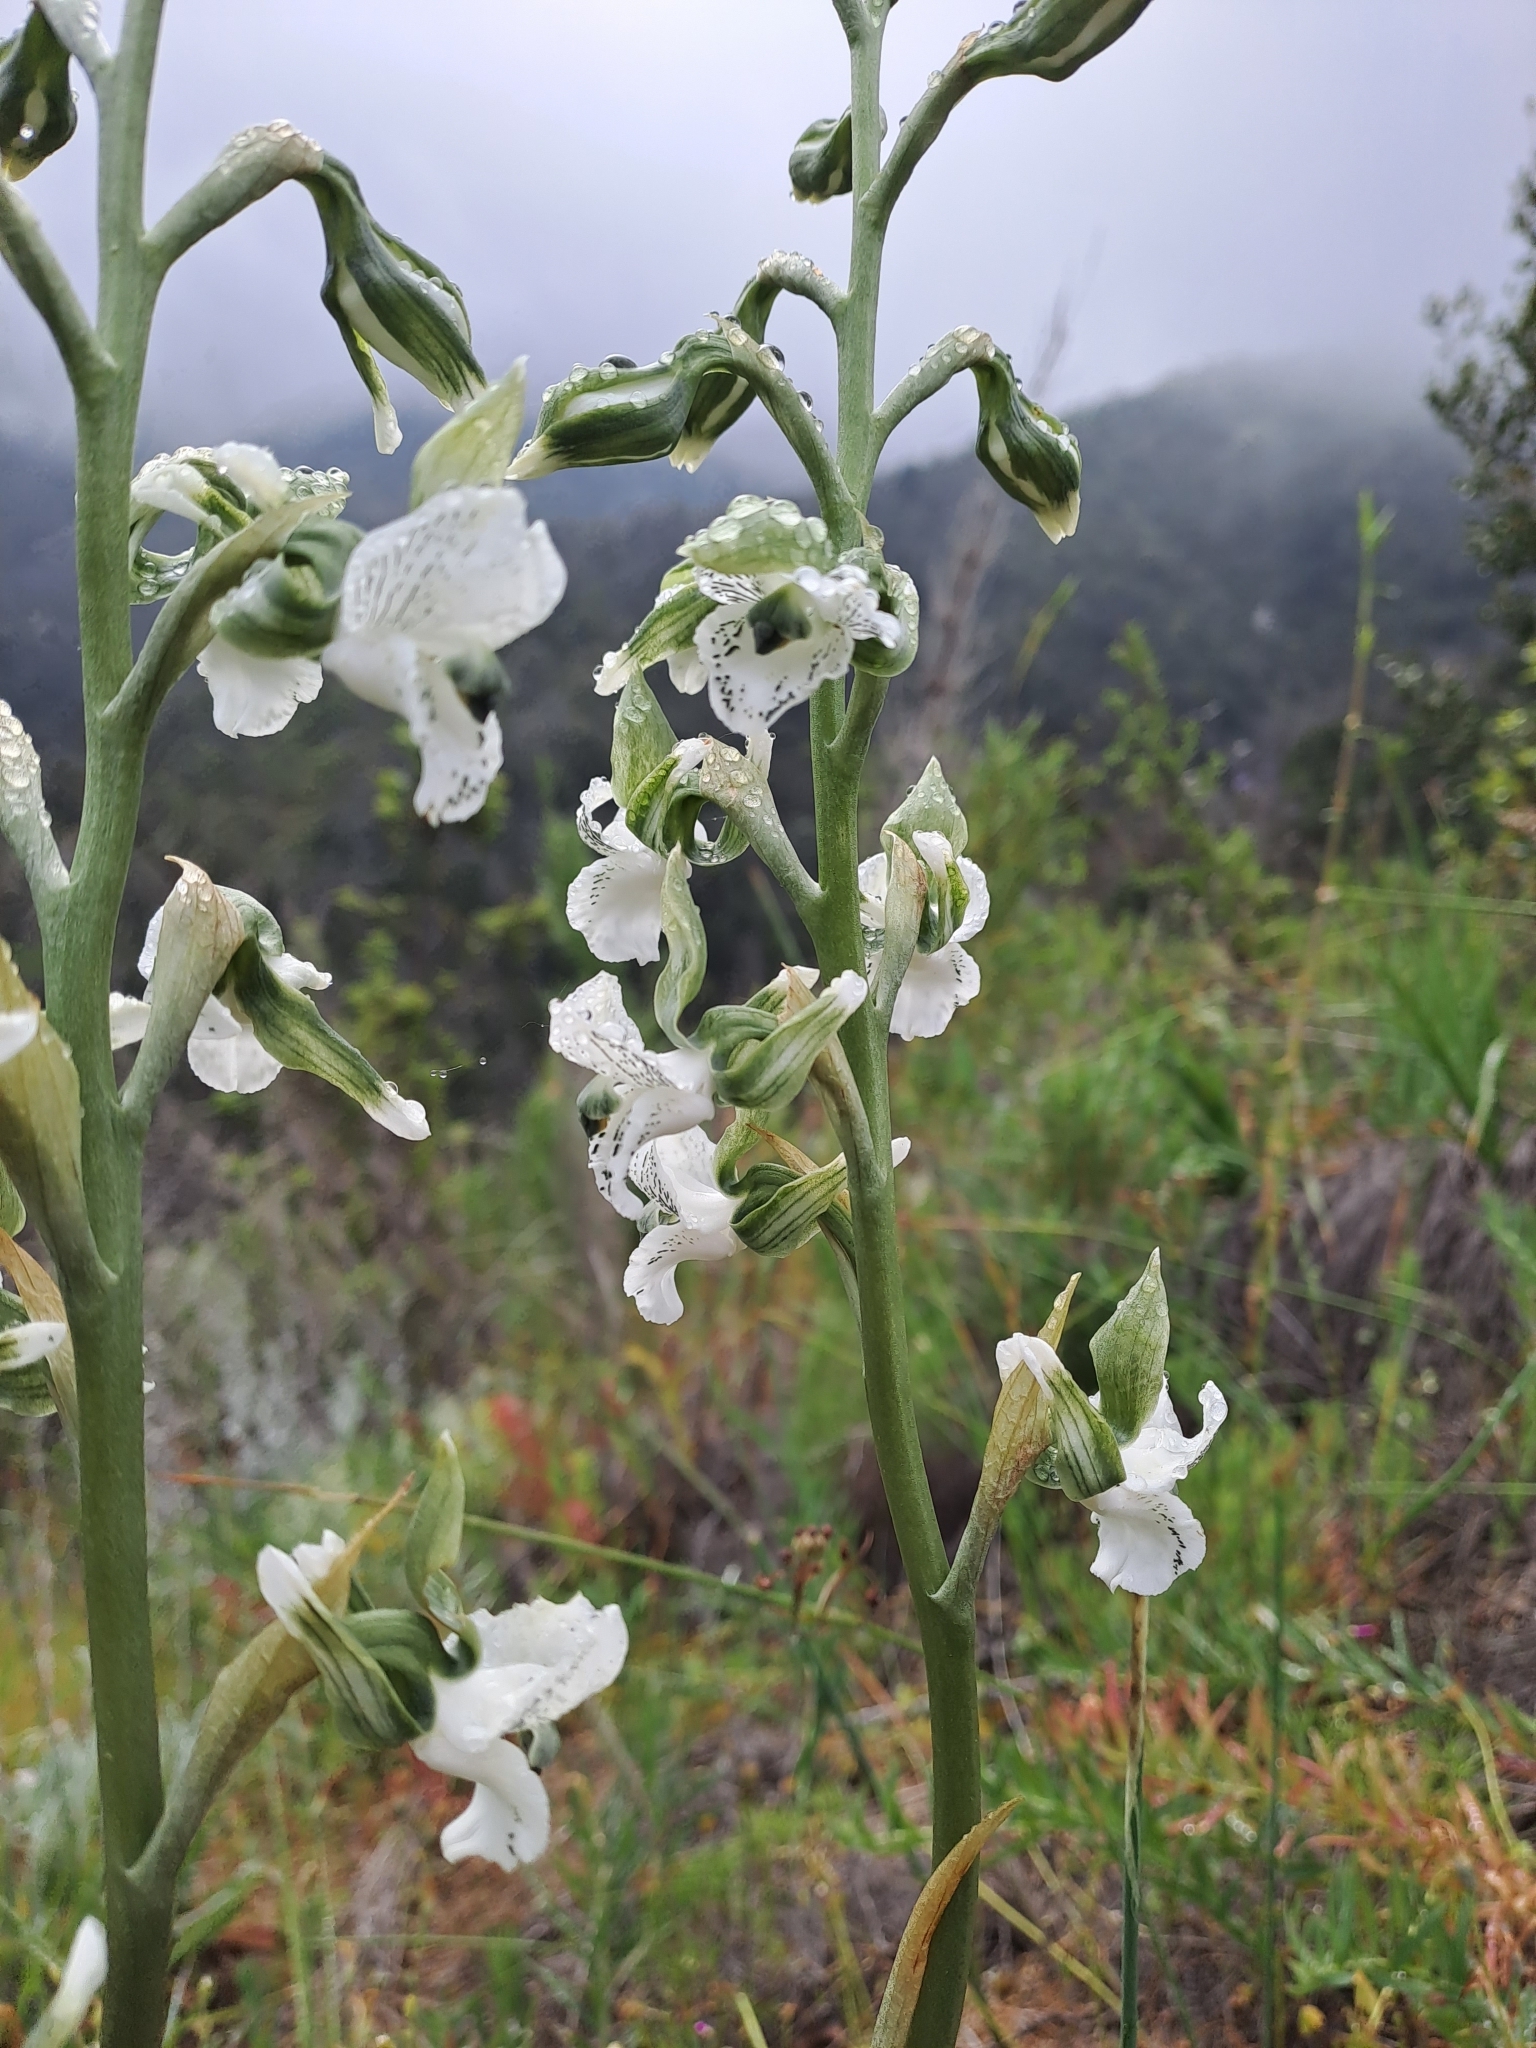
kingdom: Plantae
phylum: Tracheophyta
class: Liliopsida
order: Asparagales
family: Orchidaceae
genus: Chloraea
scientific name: Chloraea galeata
